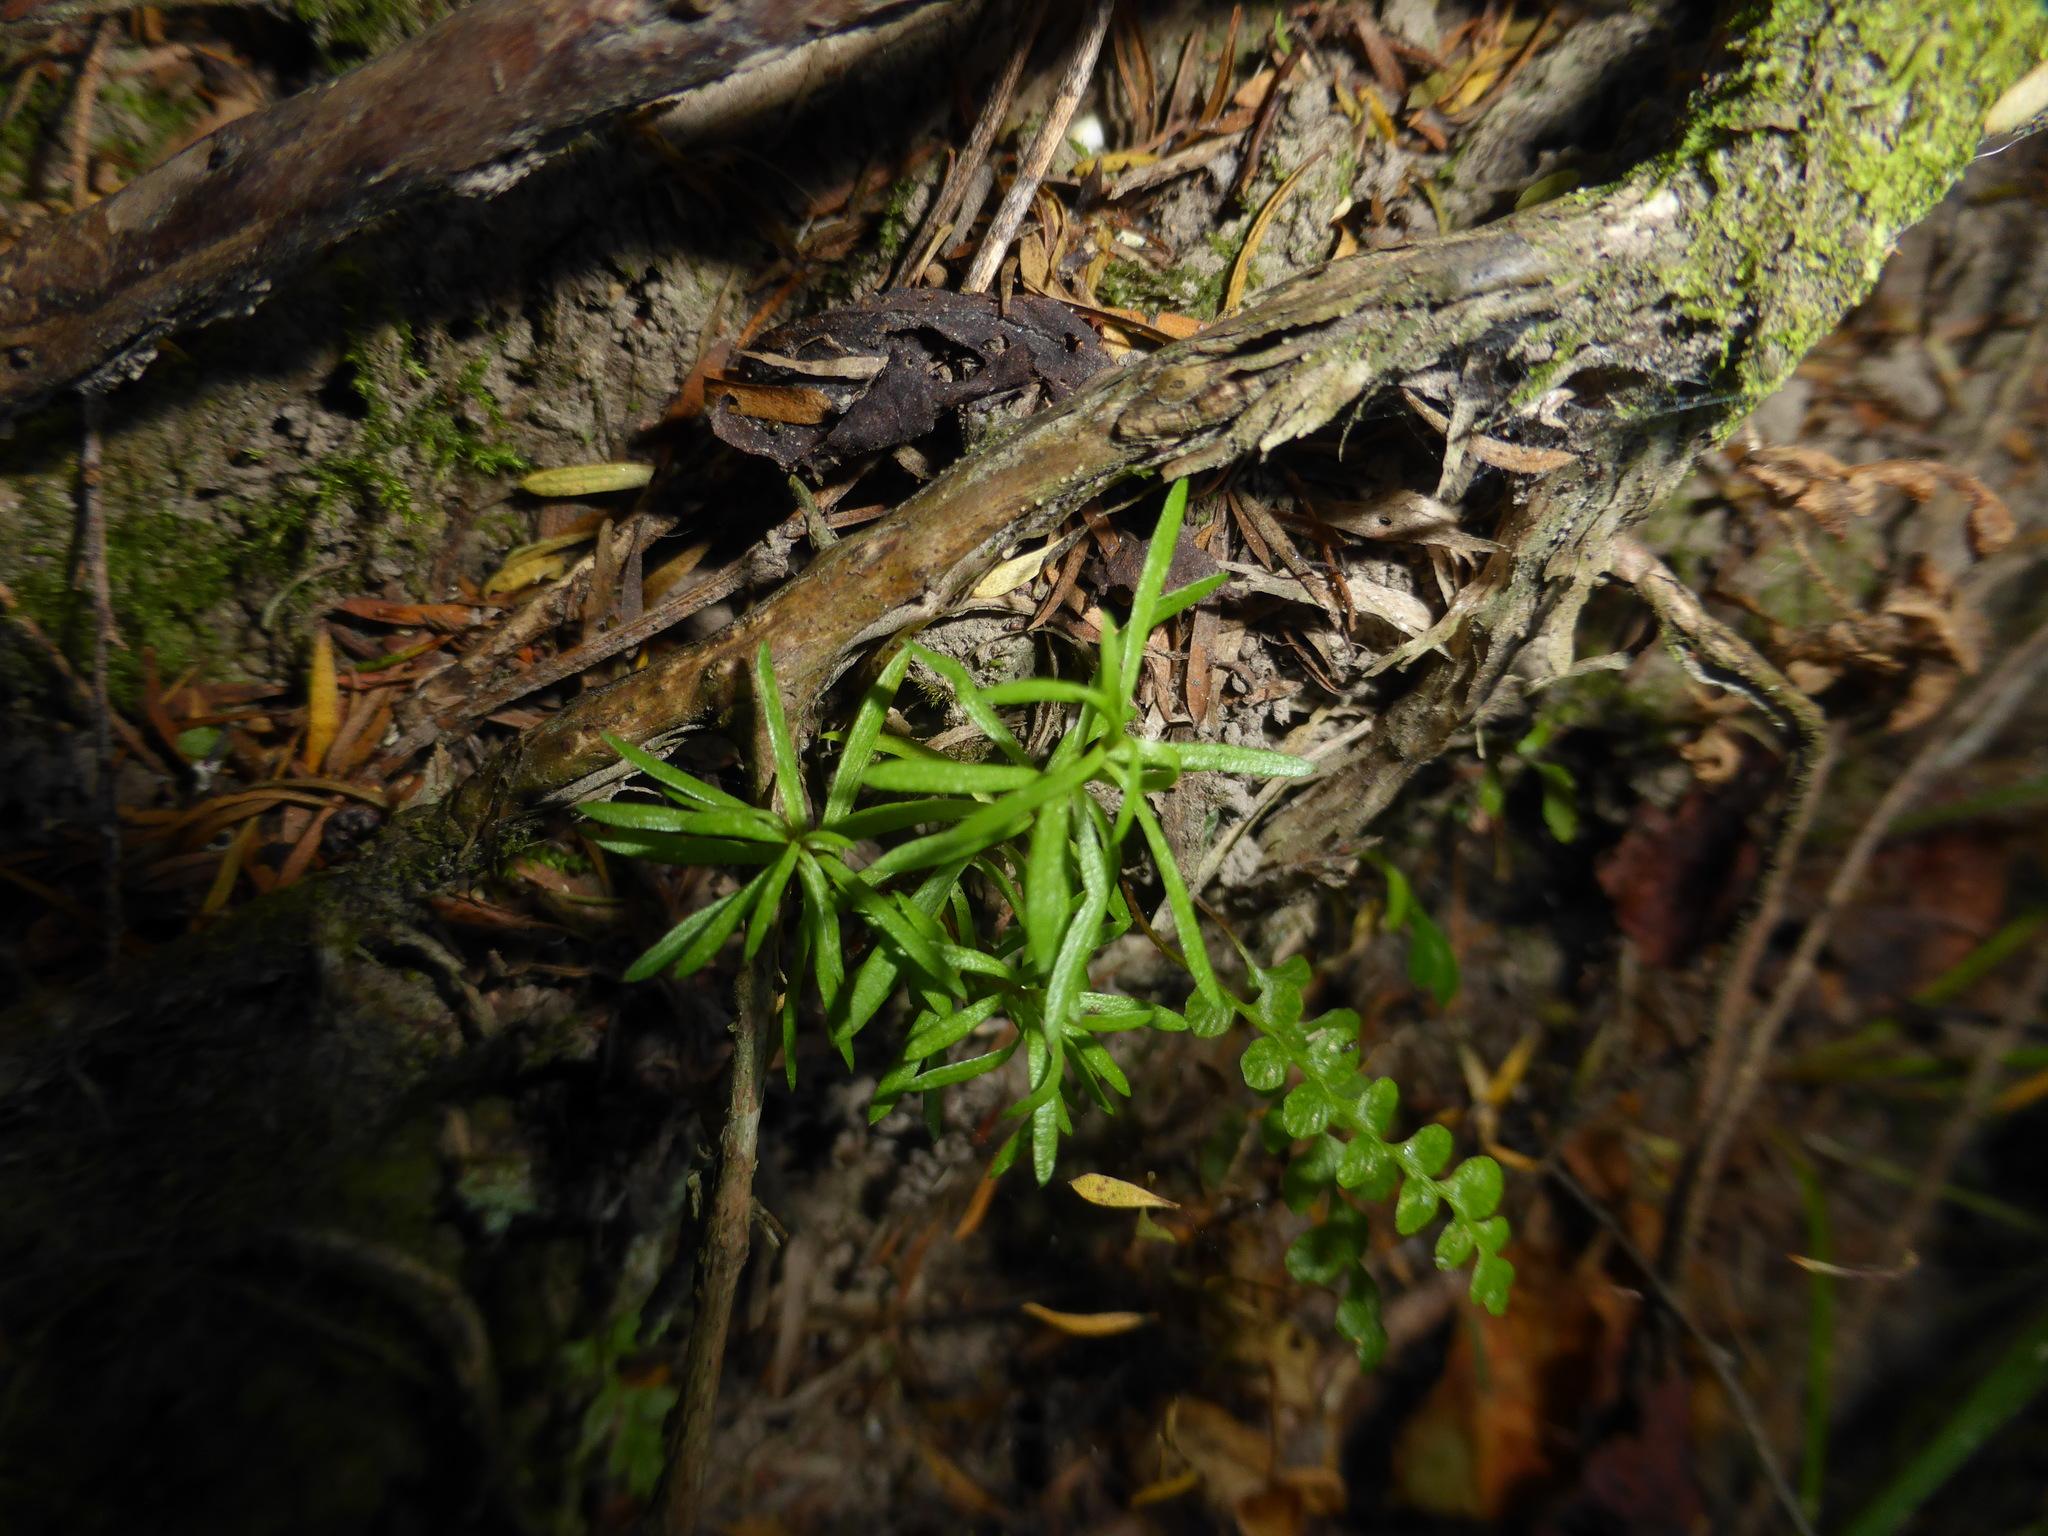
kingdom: Plantae
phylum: Tracheophyta
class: Pinopsida
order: Pinales
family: Podocarpaceae
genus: Podocarpus
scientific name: Podocarpus totara
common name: Totara
